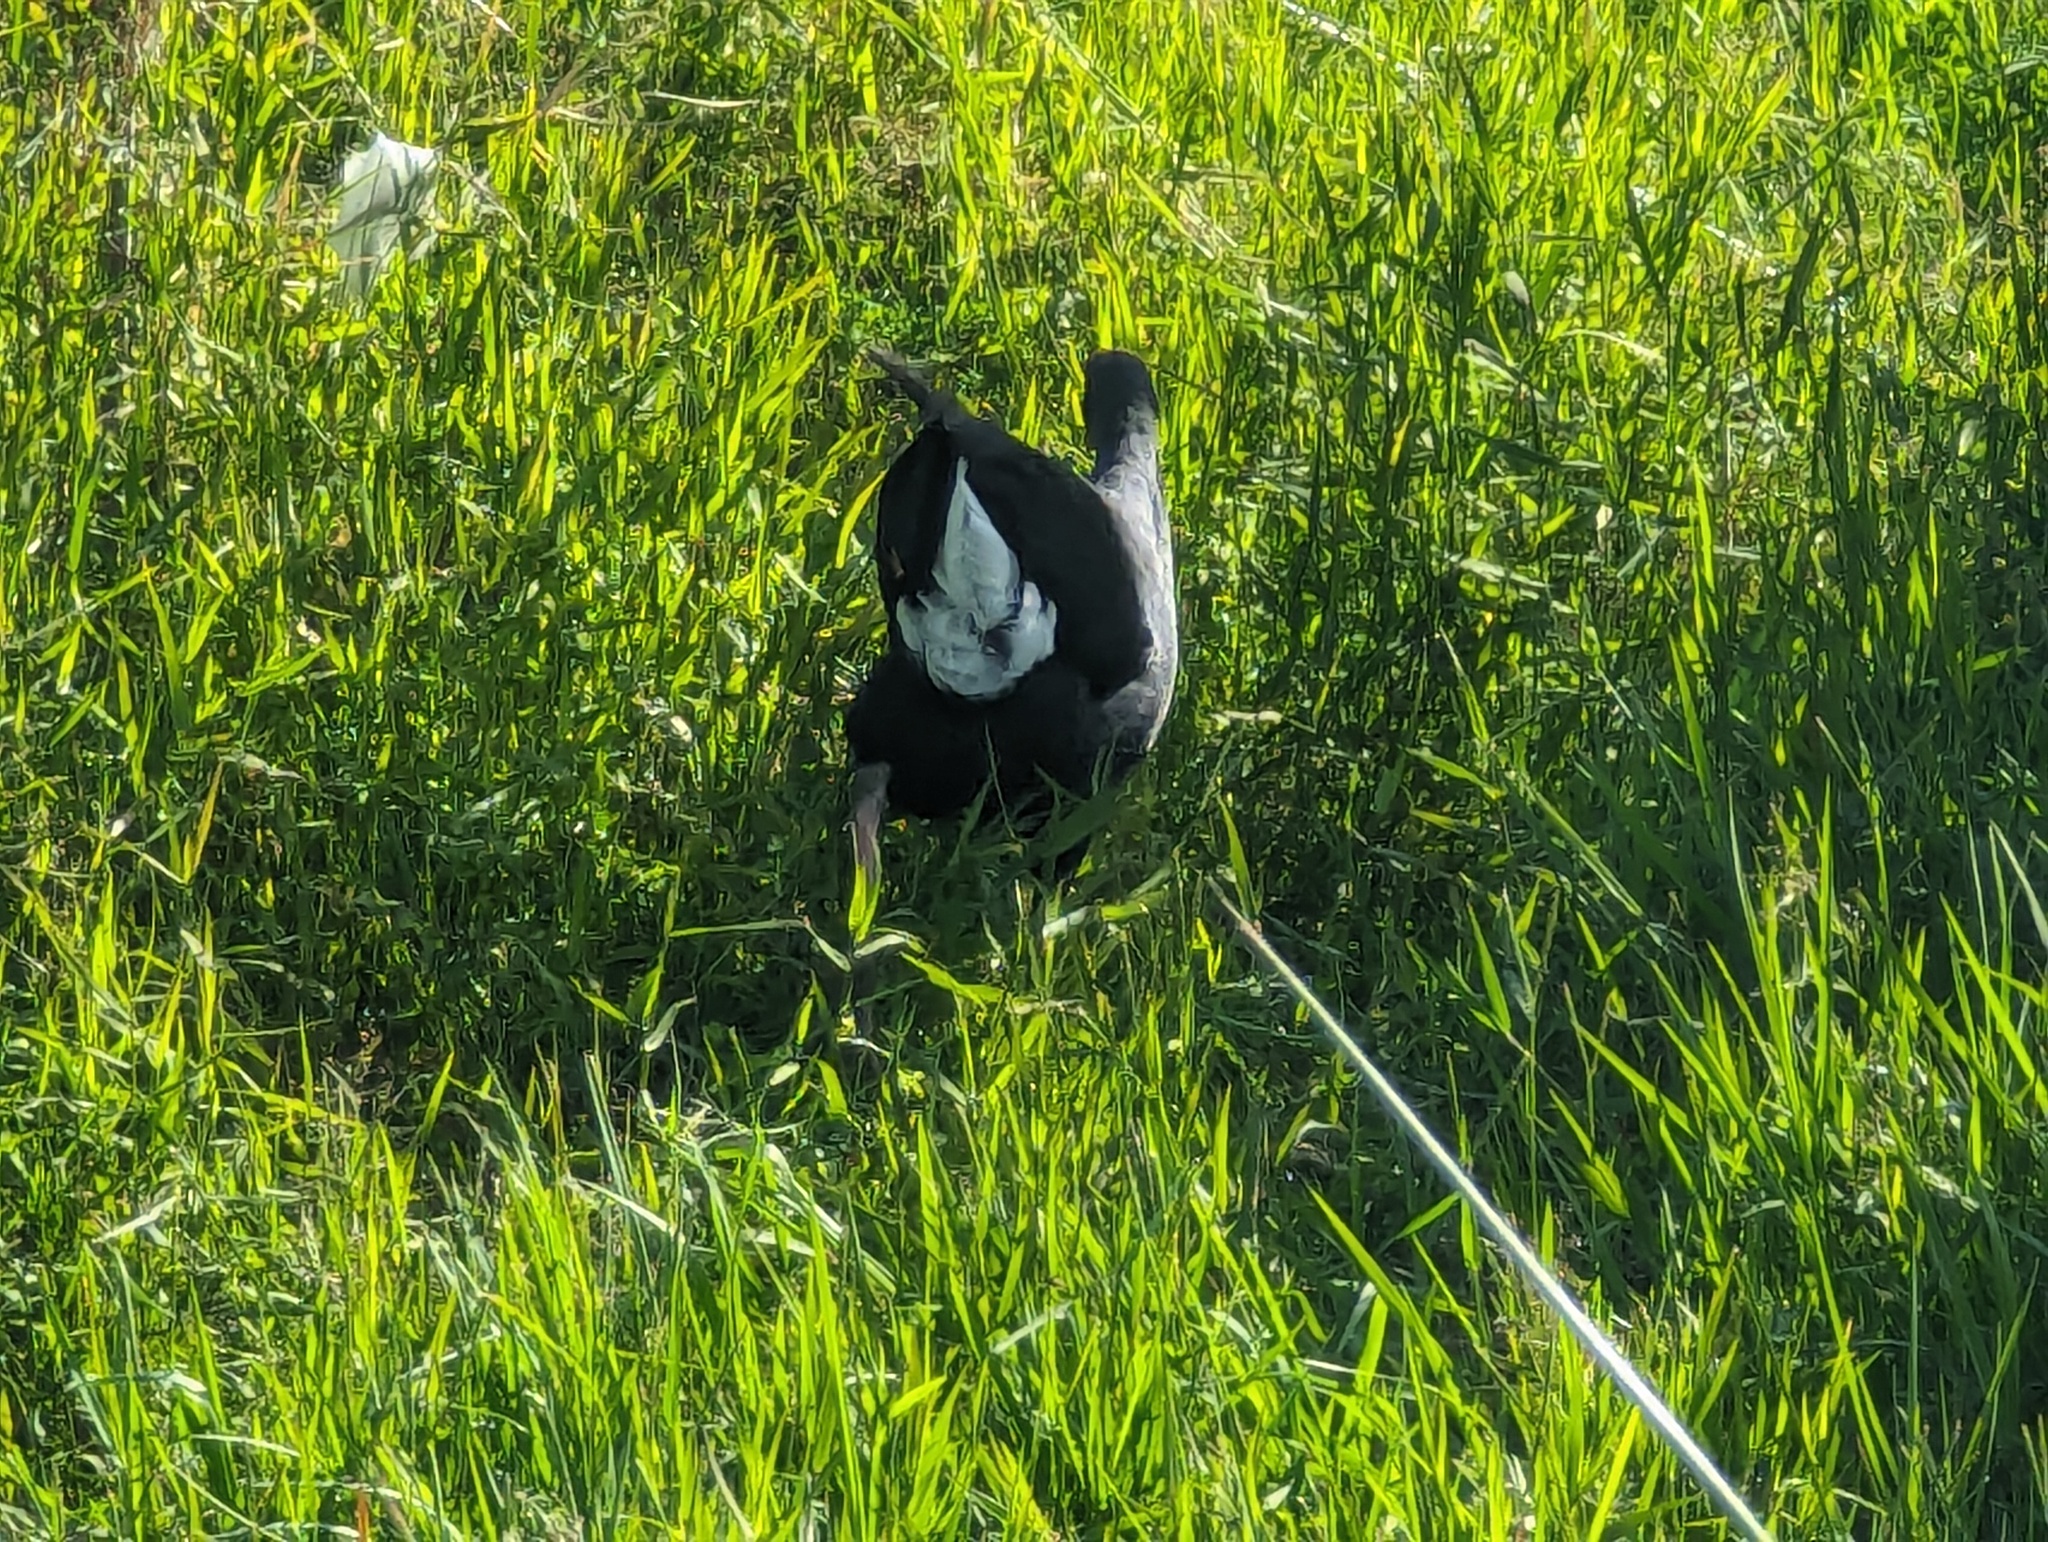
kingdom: Animalia
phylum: Chordata
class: Aves
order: Gruiformes
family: Rallidae
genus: Porphyrio
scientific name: Porphyrio melanotus
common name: Australasian swamphen
